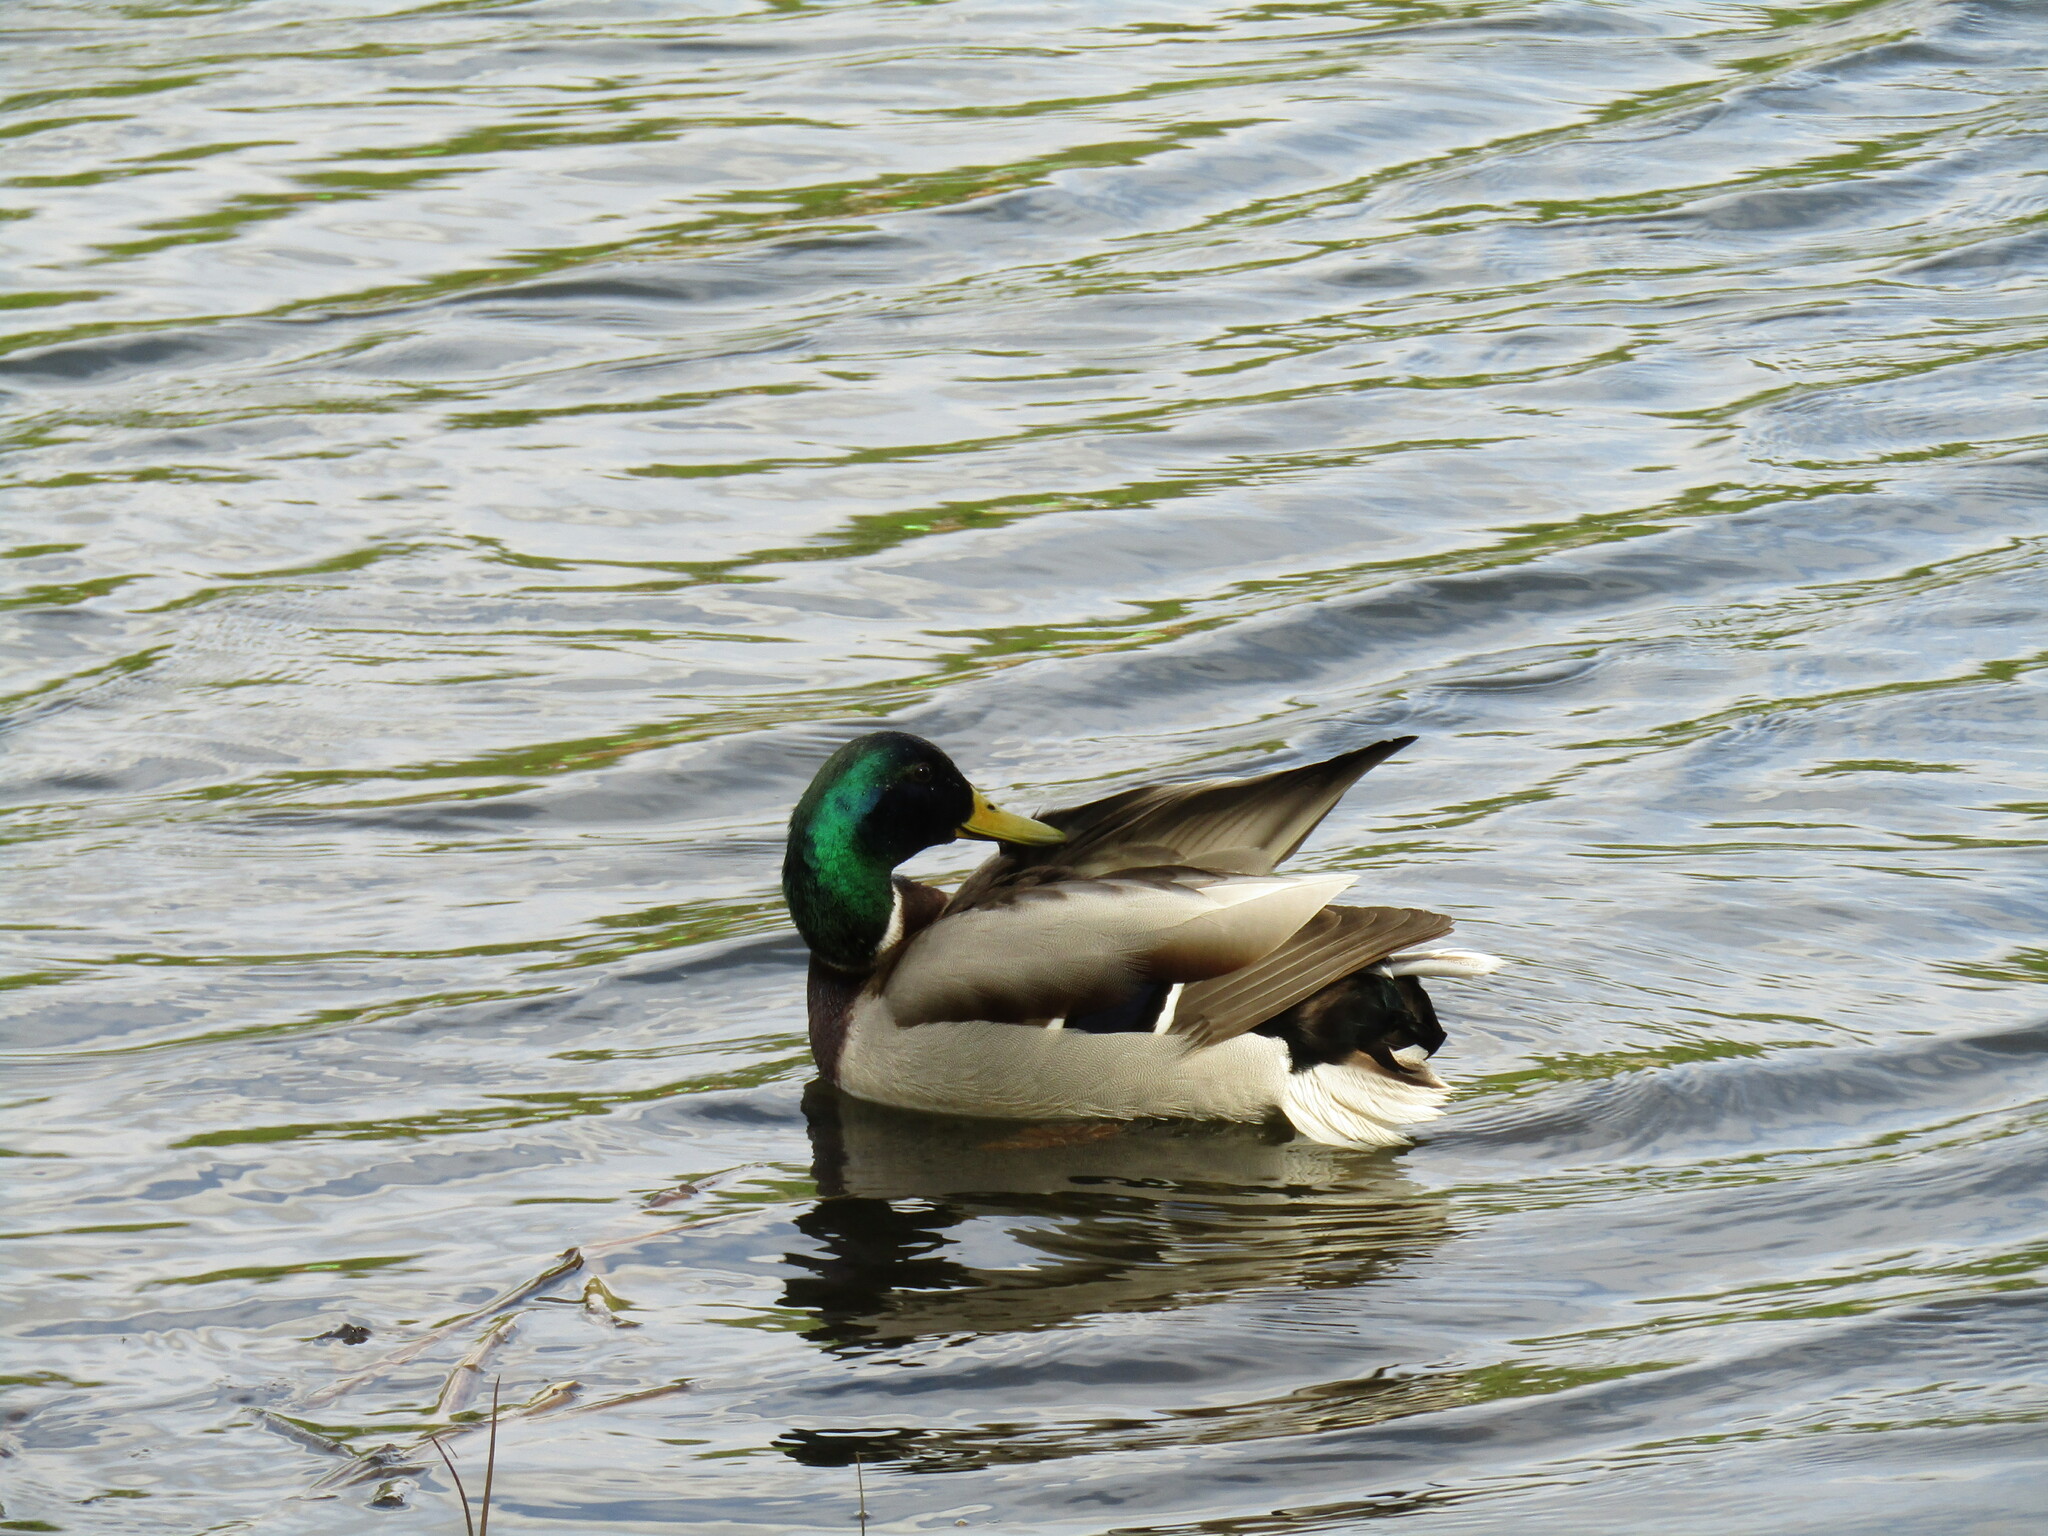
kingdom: Animalia
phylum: Chordata
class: Aves
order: Anseriformes
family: Anatidae
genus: Anas
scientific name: Anas platyrhynchos
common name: Mallard
